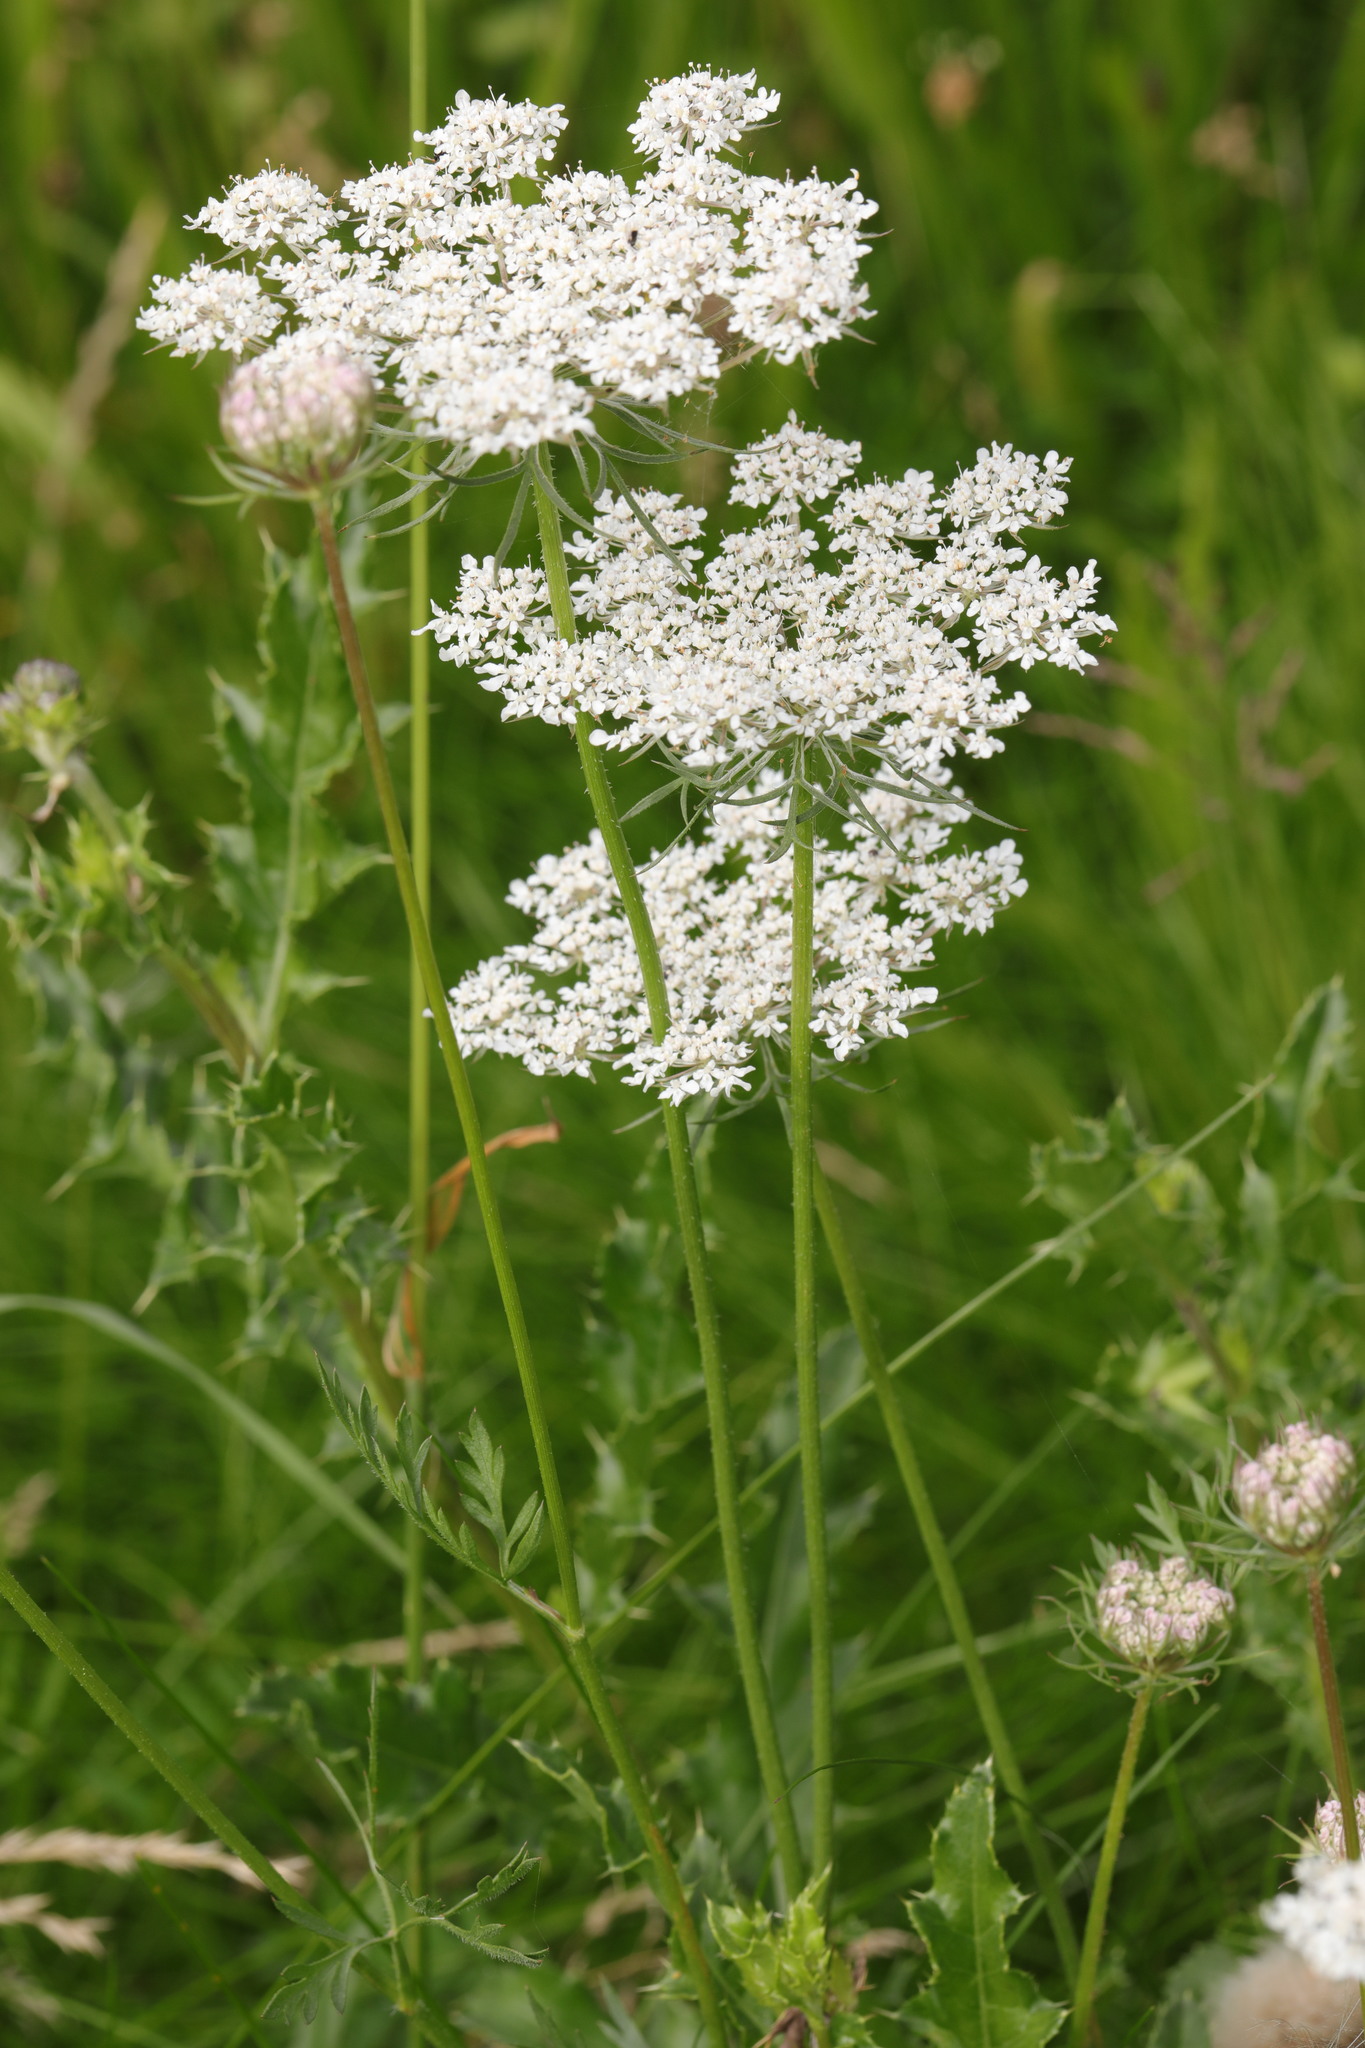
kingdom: Plantae
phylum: Tracheophyta
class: Magnoliopsida
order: Apiales
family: Apiaceae
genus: Daucus
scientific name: Daucus carota
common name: Wild carrot
